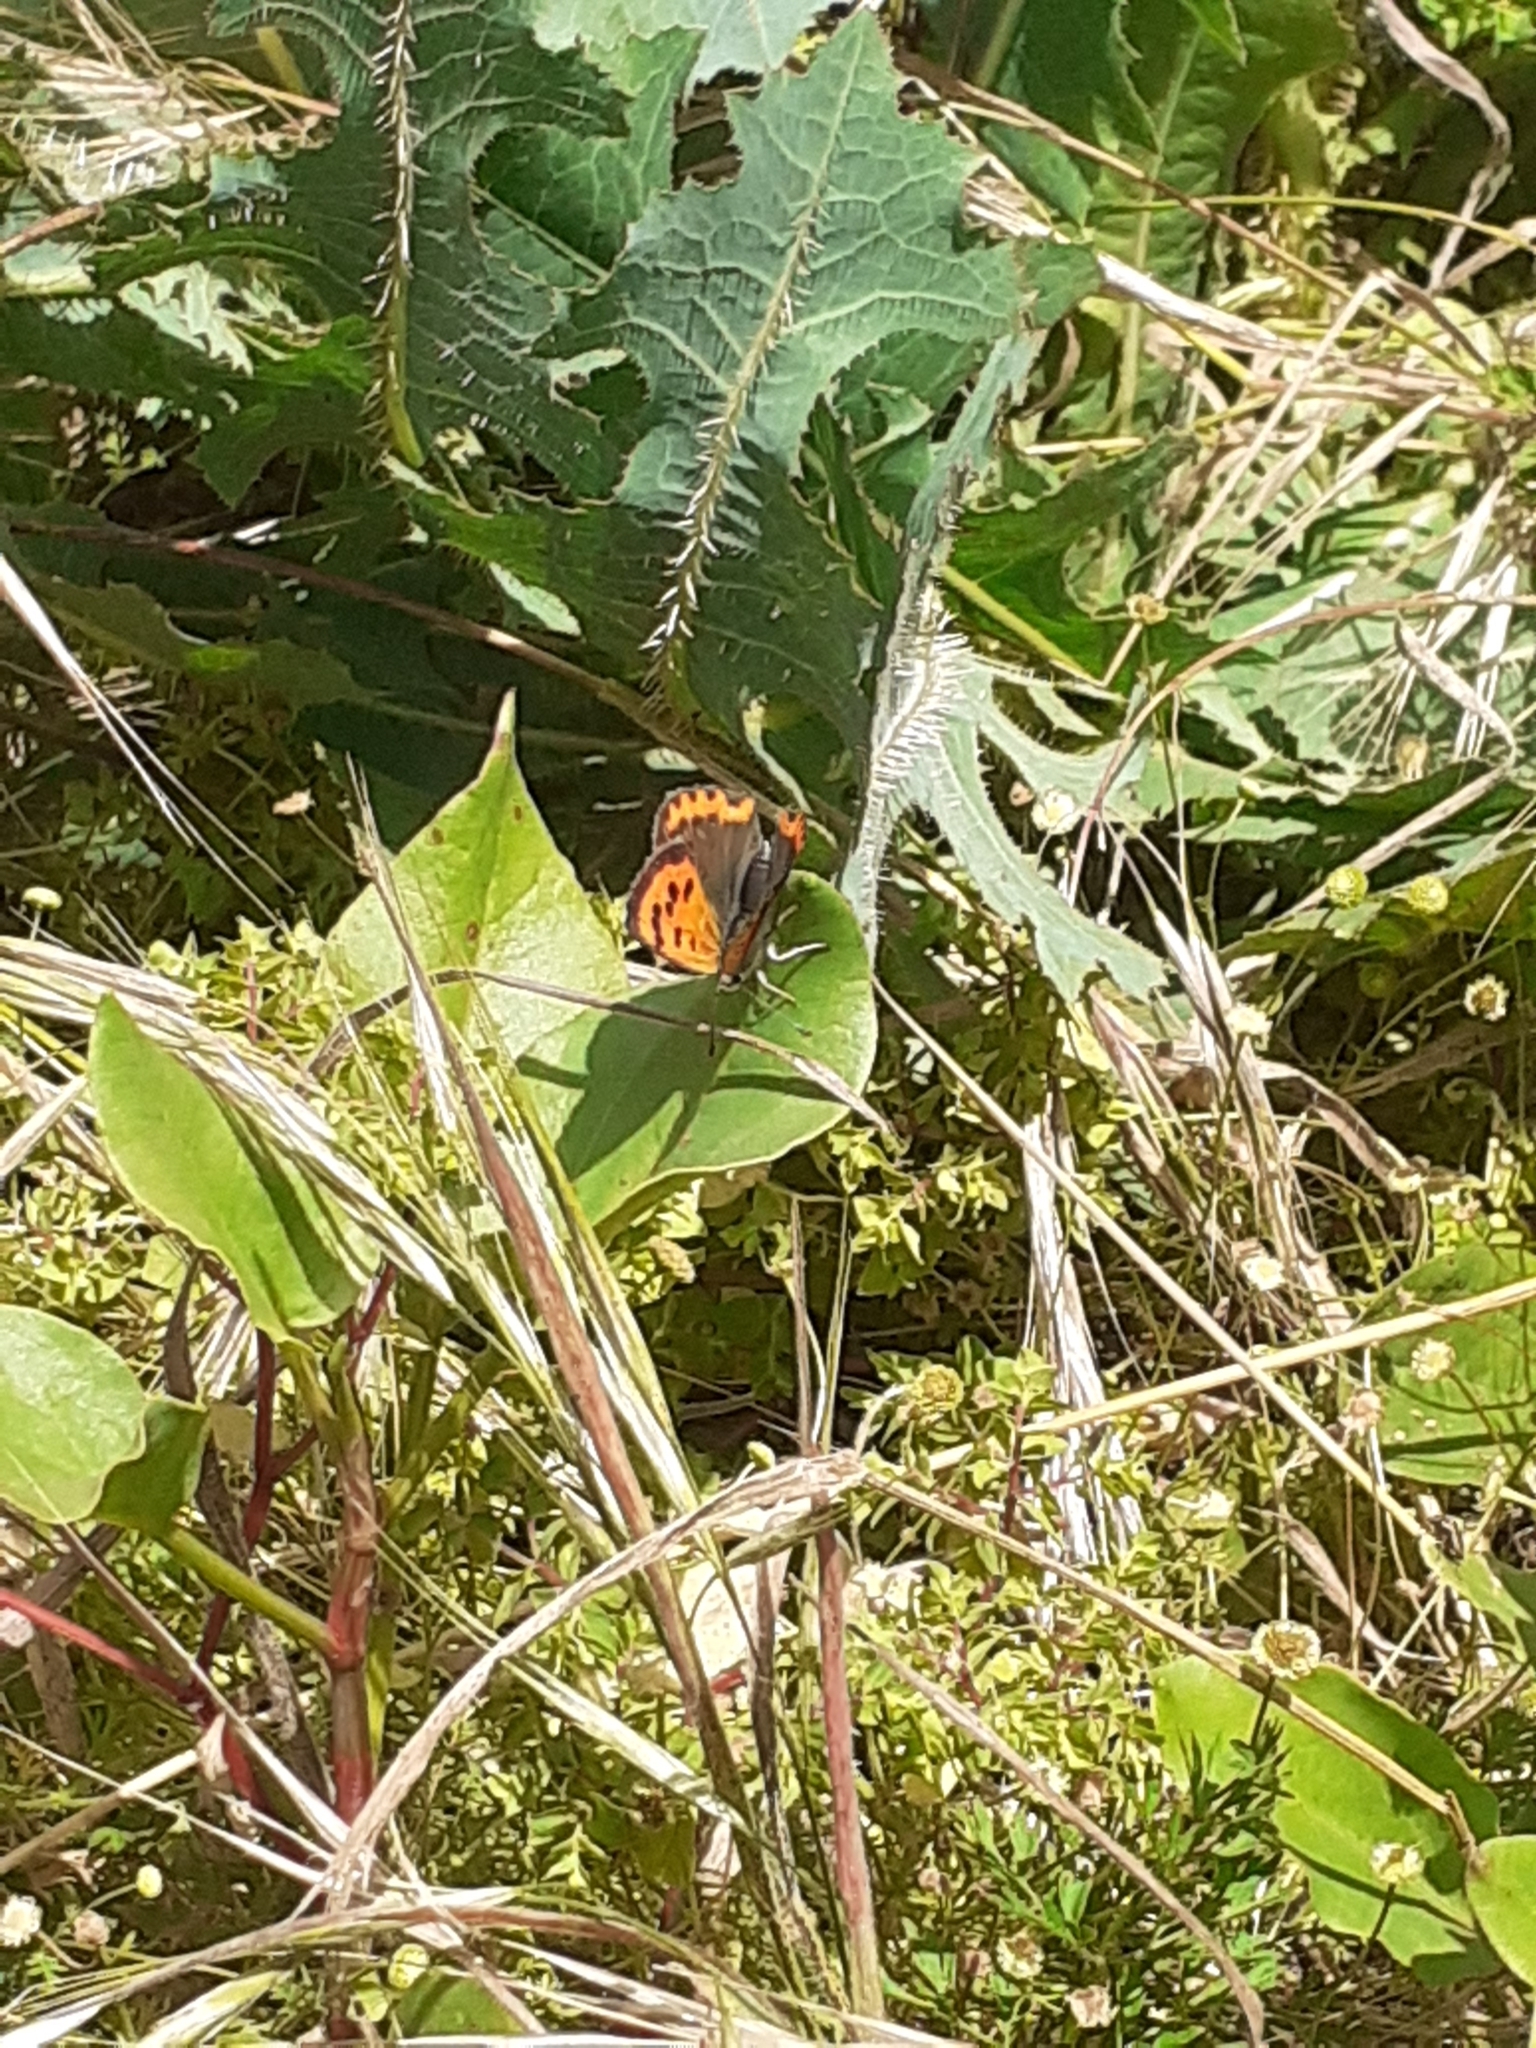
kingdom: Animalia
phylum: Arthropoda
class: Insecta
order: Lepidoptera
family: Lycaenidae
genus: Lycaena
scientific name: Lycaena phlaeas
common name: Small copper
